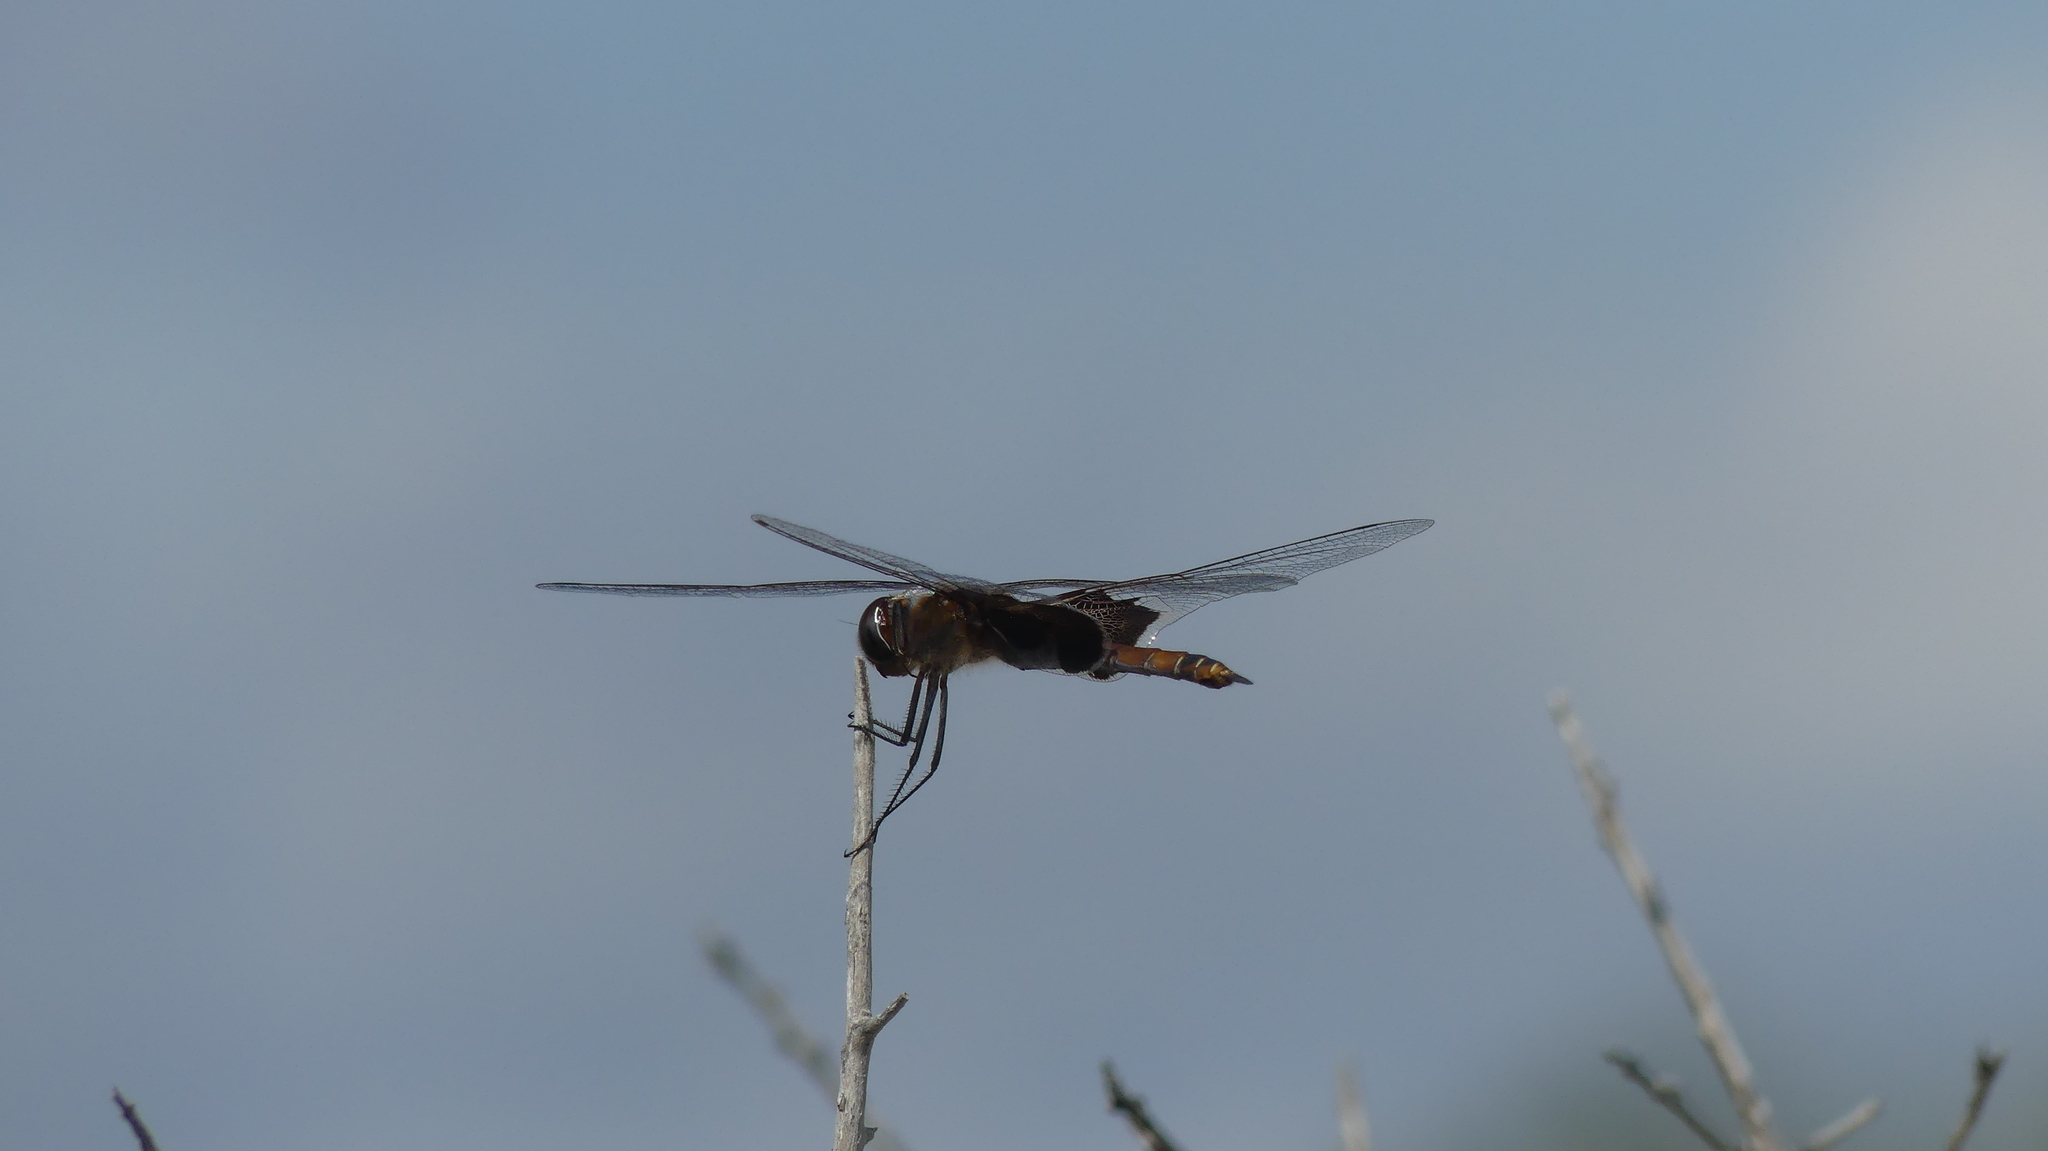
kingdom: Animalia
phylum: Arthropoda
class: Insecta
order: Odonata
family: Libellulidae
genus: Tramea
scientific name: Tramea carolina
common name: Carolina saddlebags
